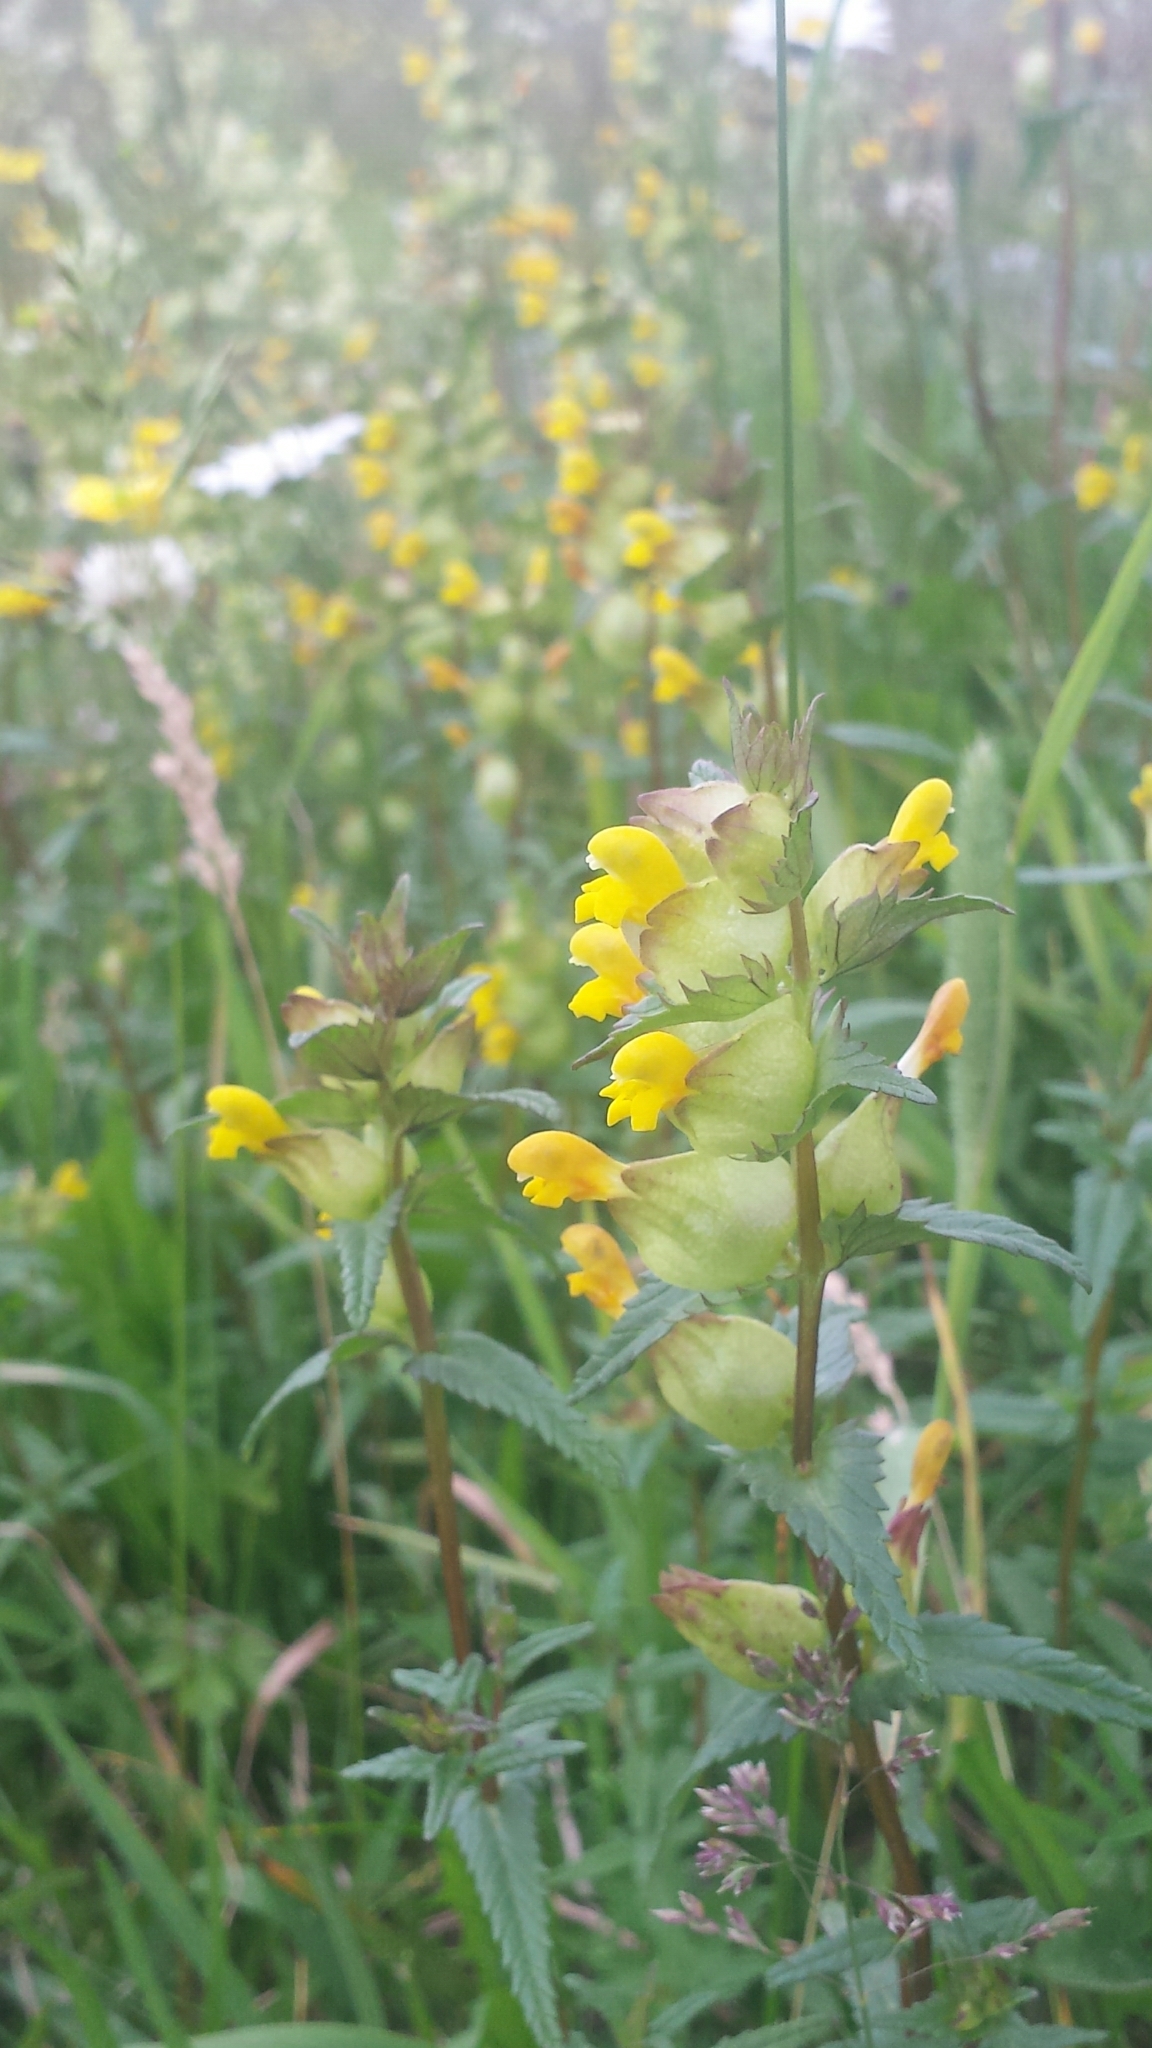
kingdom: Plantae
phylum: Tracheophyta
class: Magnoliopsida
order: Lamiales
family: Orobanchaceae
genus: Rhinanthus
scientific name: Rhinanthus minor
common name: Yellow-rattle
